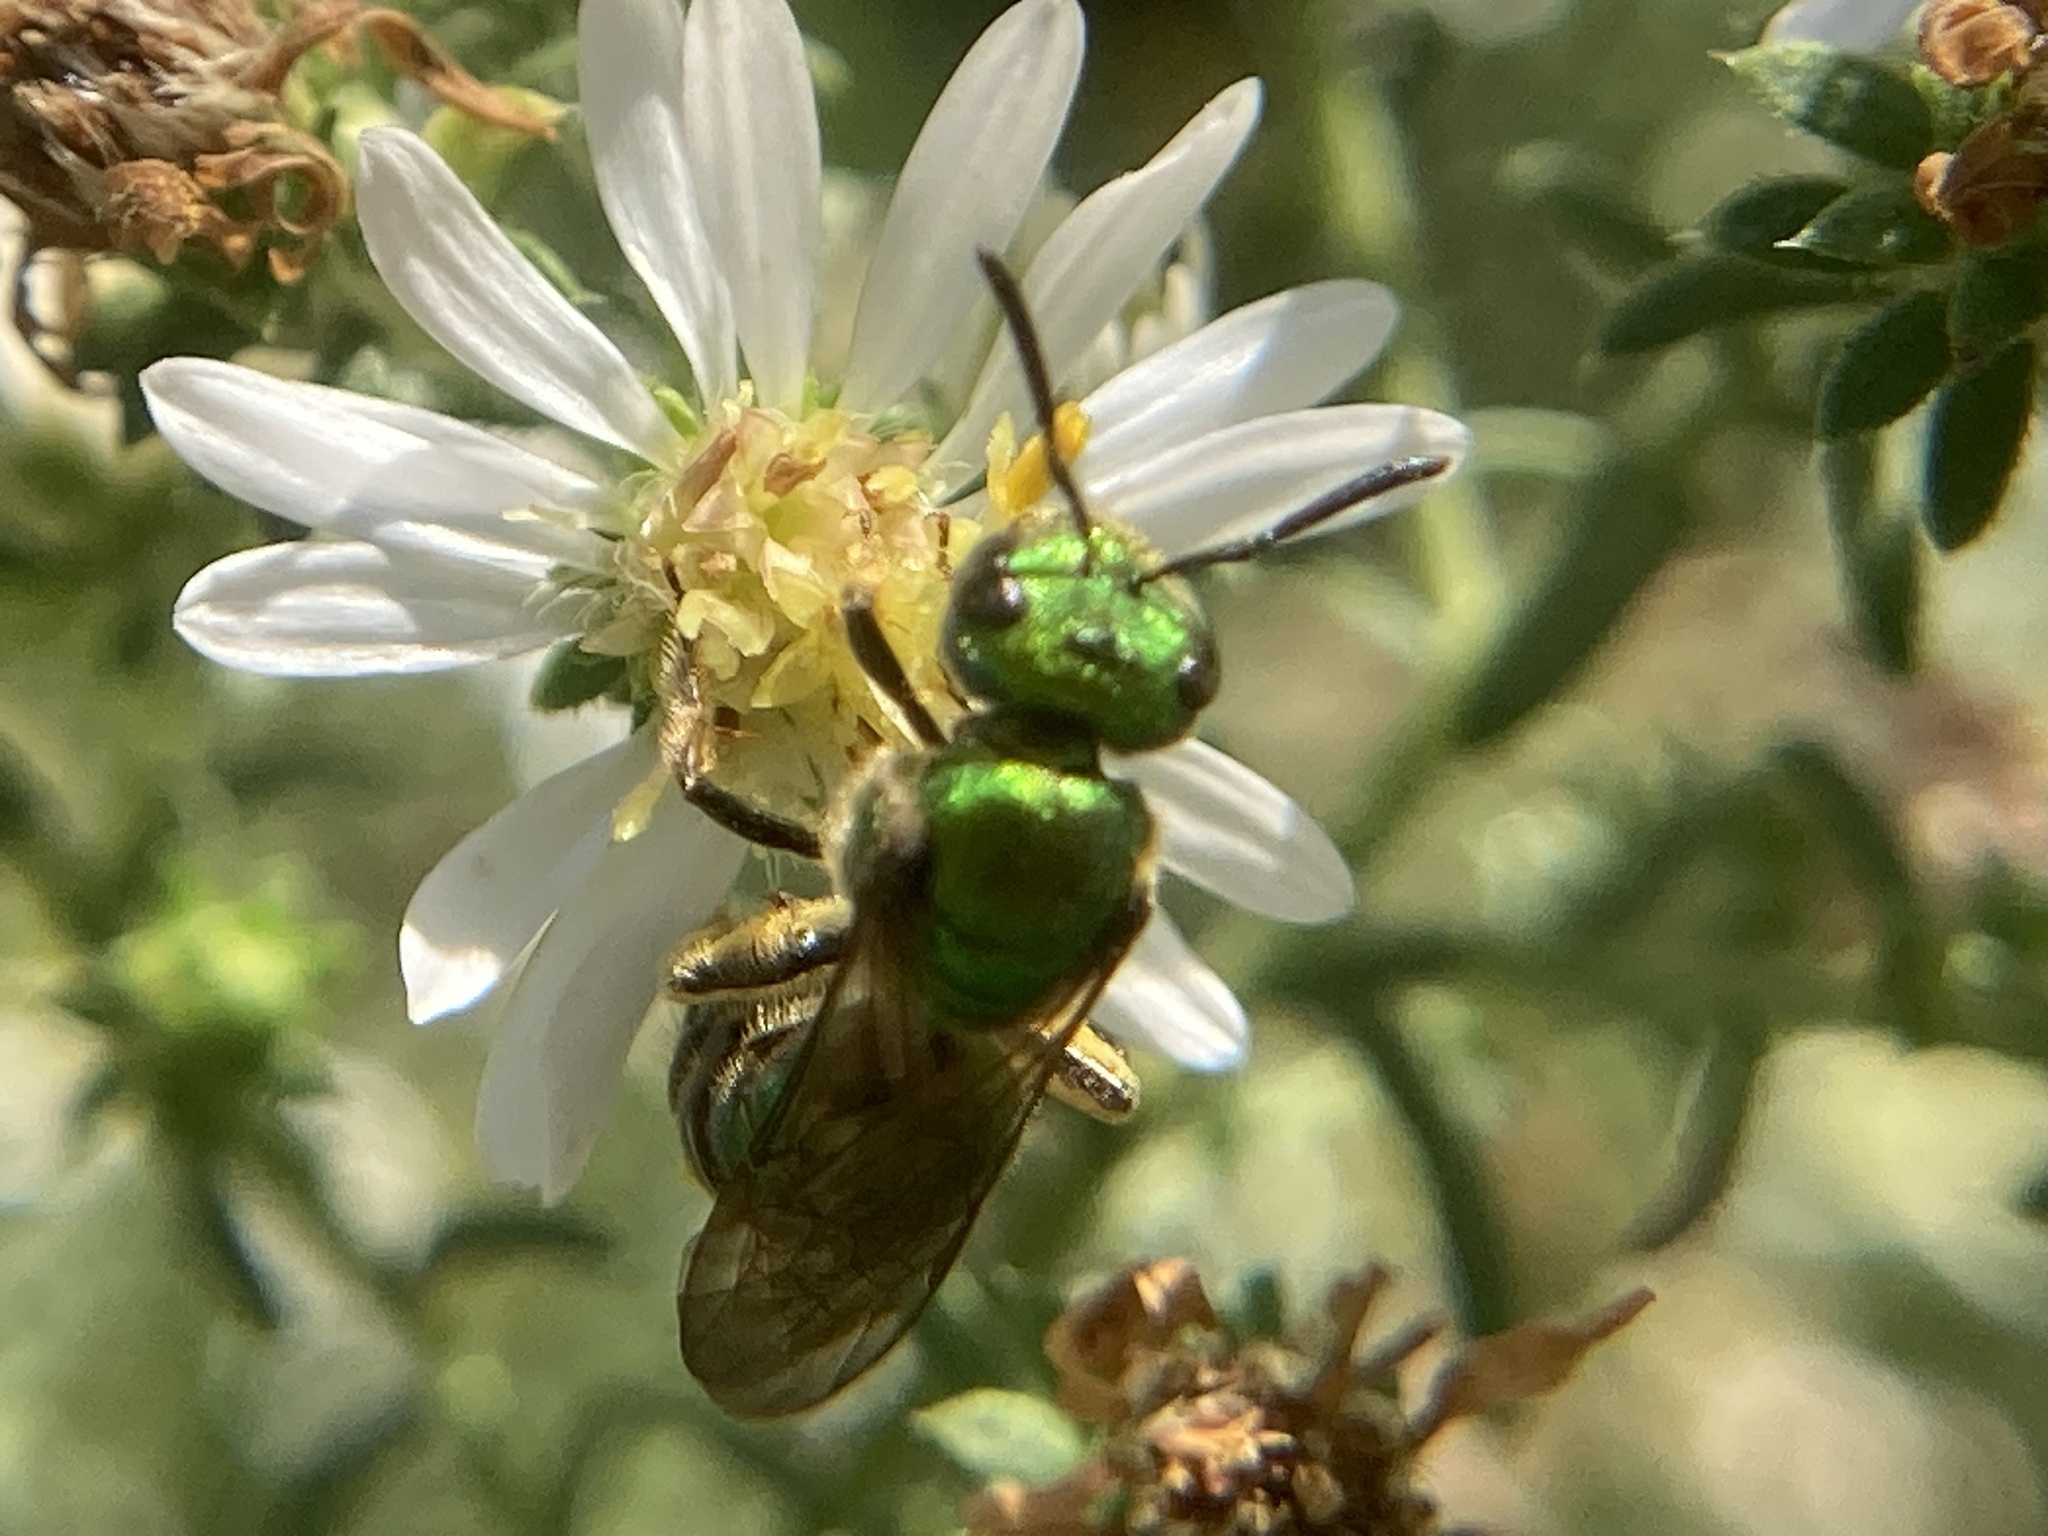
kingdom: Animalia
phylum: Arthropoda
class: Insecta
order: Hymenoptera
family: Halictidae
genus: Augochlora
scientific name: Augochlora pura
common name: Pure green sweat bee
